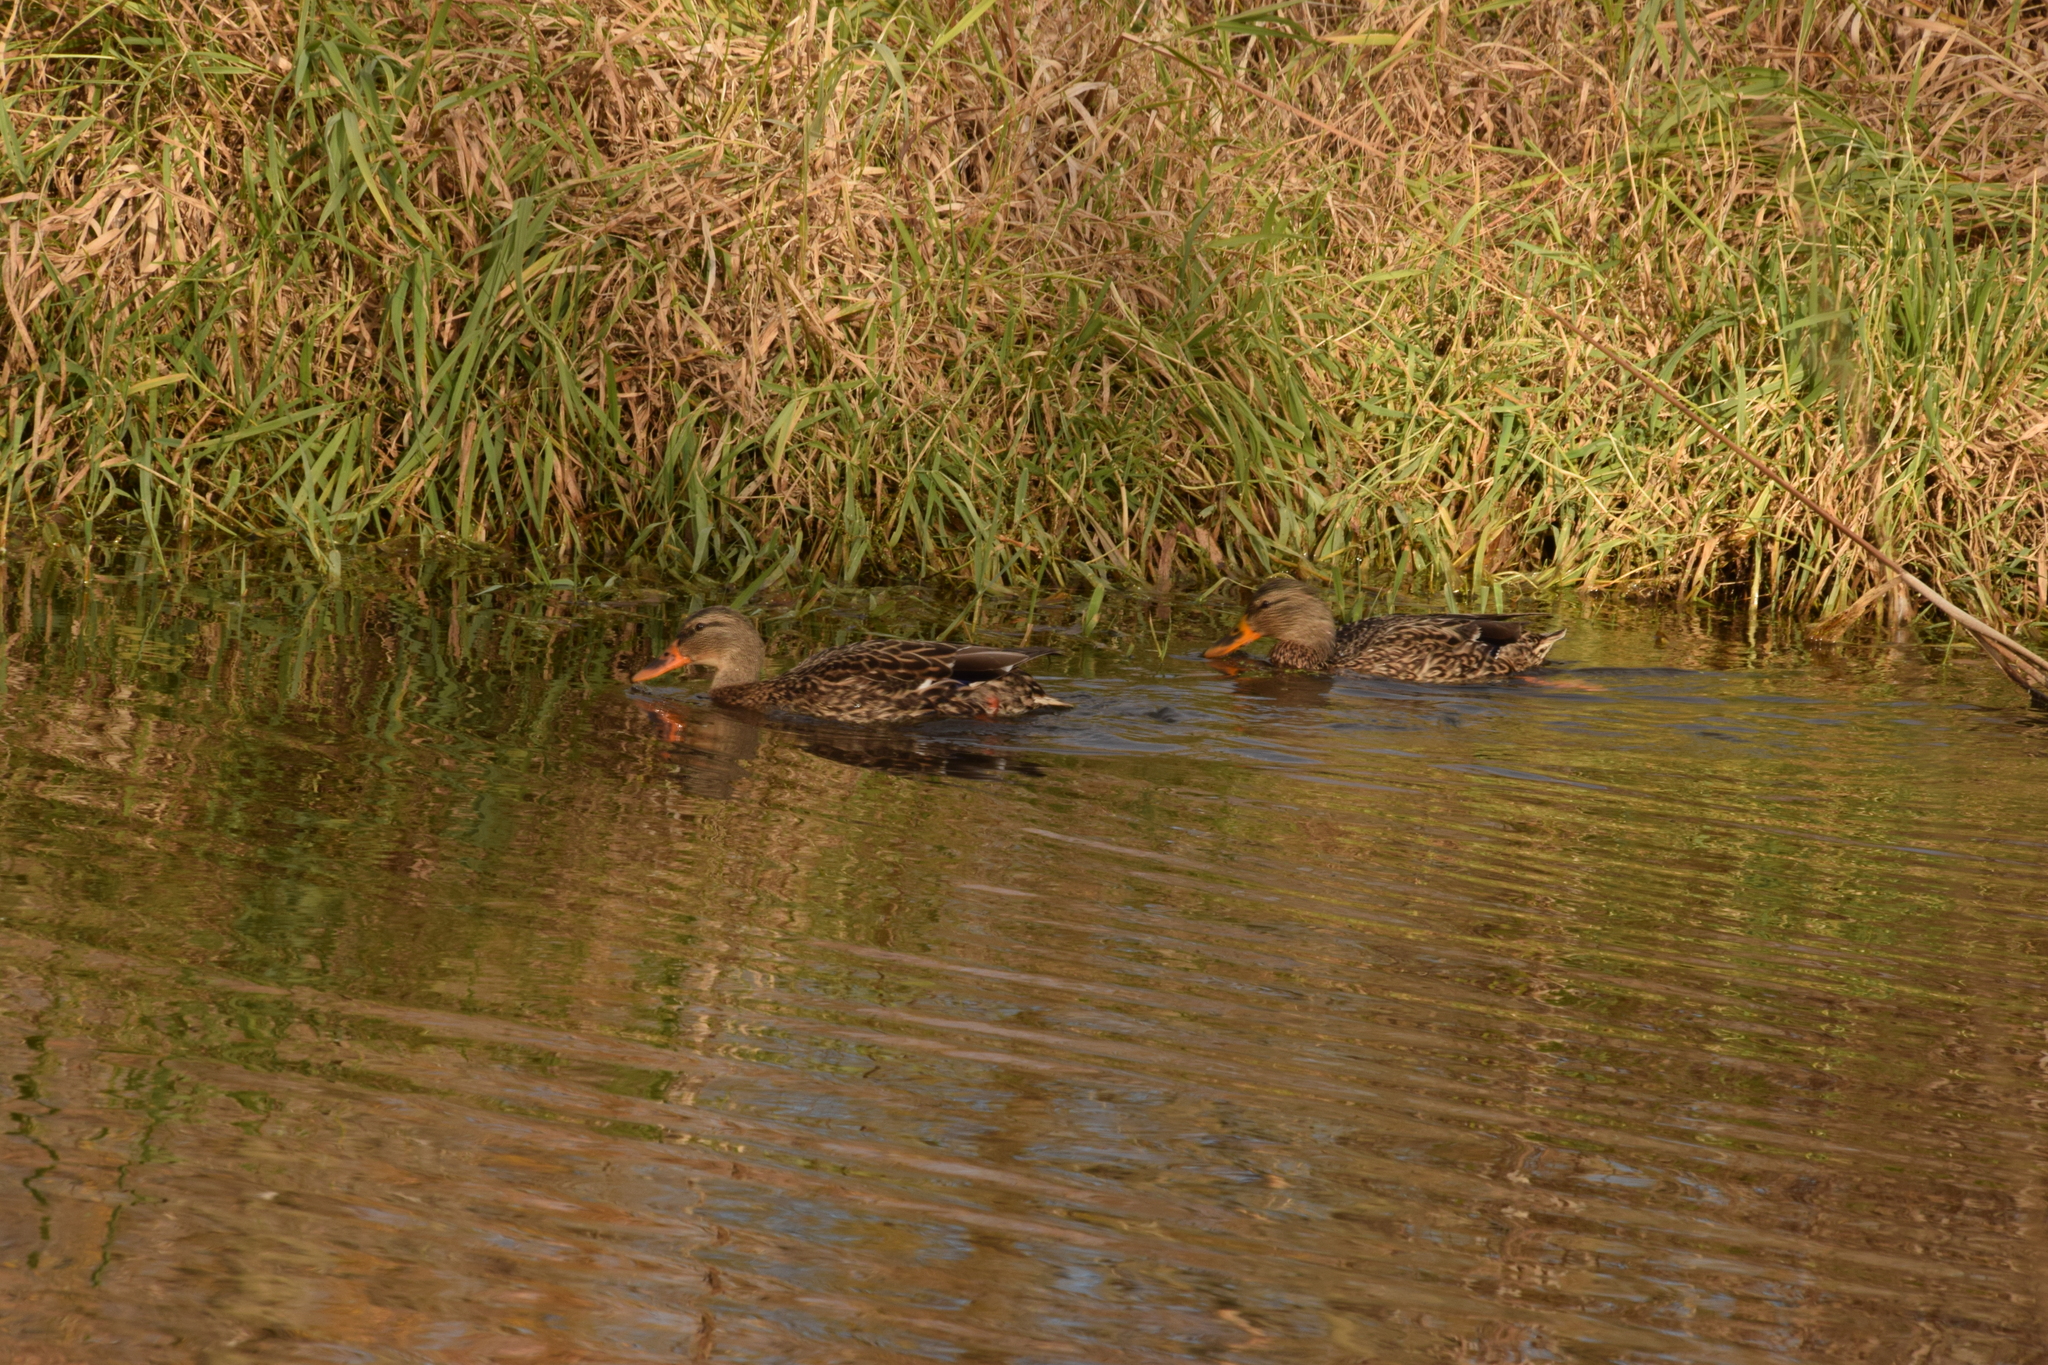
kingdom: Animalia
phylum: Chordata
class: Aves
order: Anseriformes
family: Anatidae
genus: Anas
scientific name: Anas platyrhynchos
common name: Mallard
